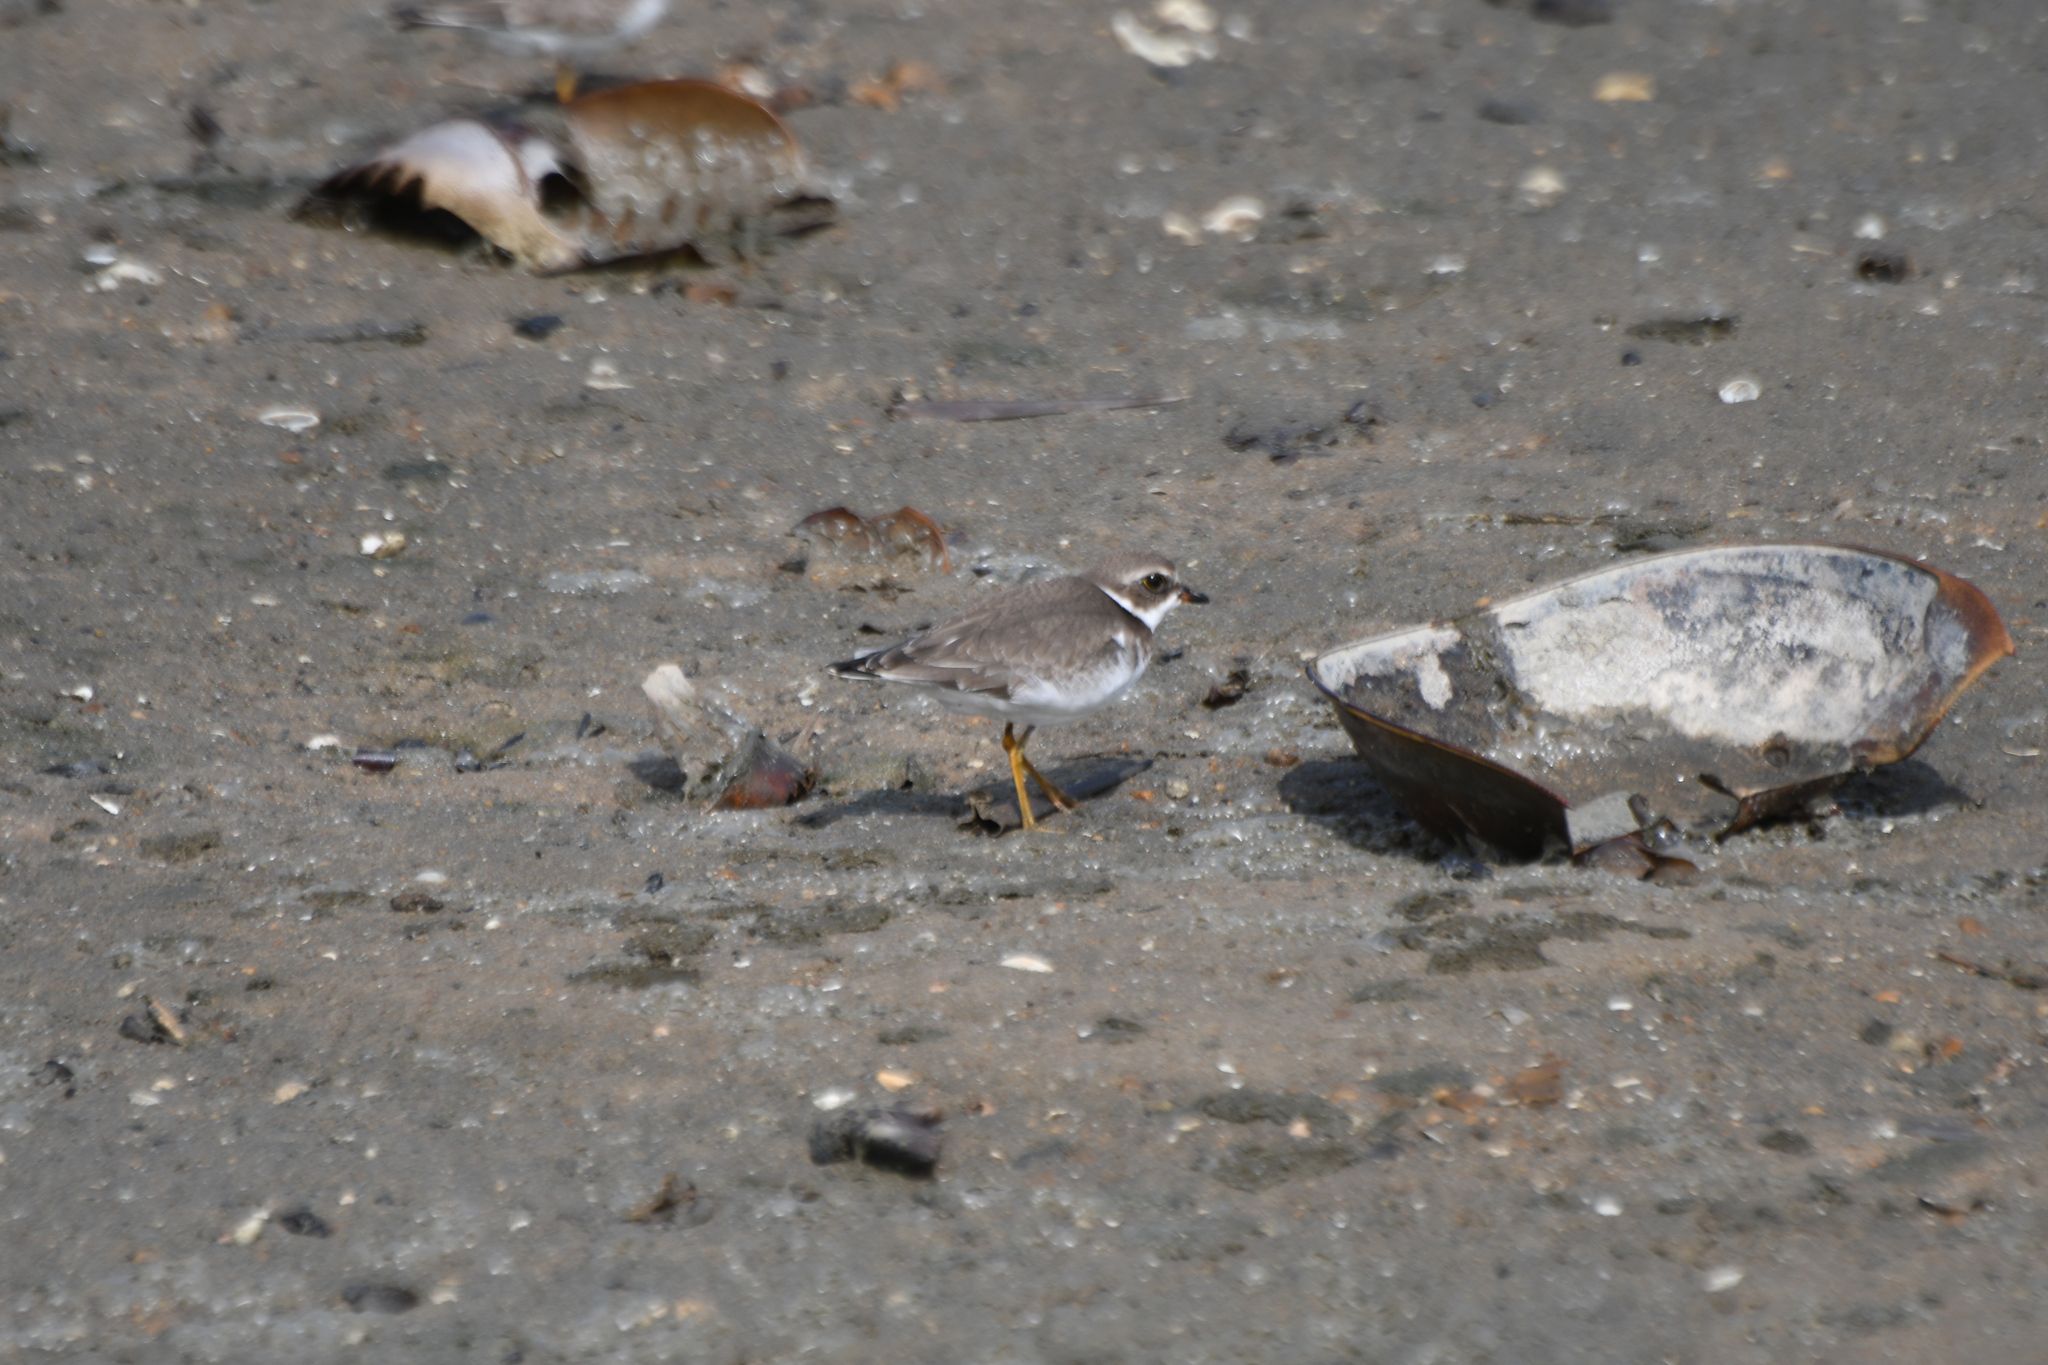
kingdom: Animalia
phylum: Chordata
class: Aves
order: Charadriiformes
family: Charadriidae
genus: Charadrius
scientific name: Charadrius semipalmatus
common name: Semipalmated plover
